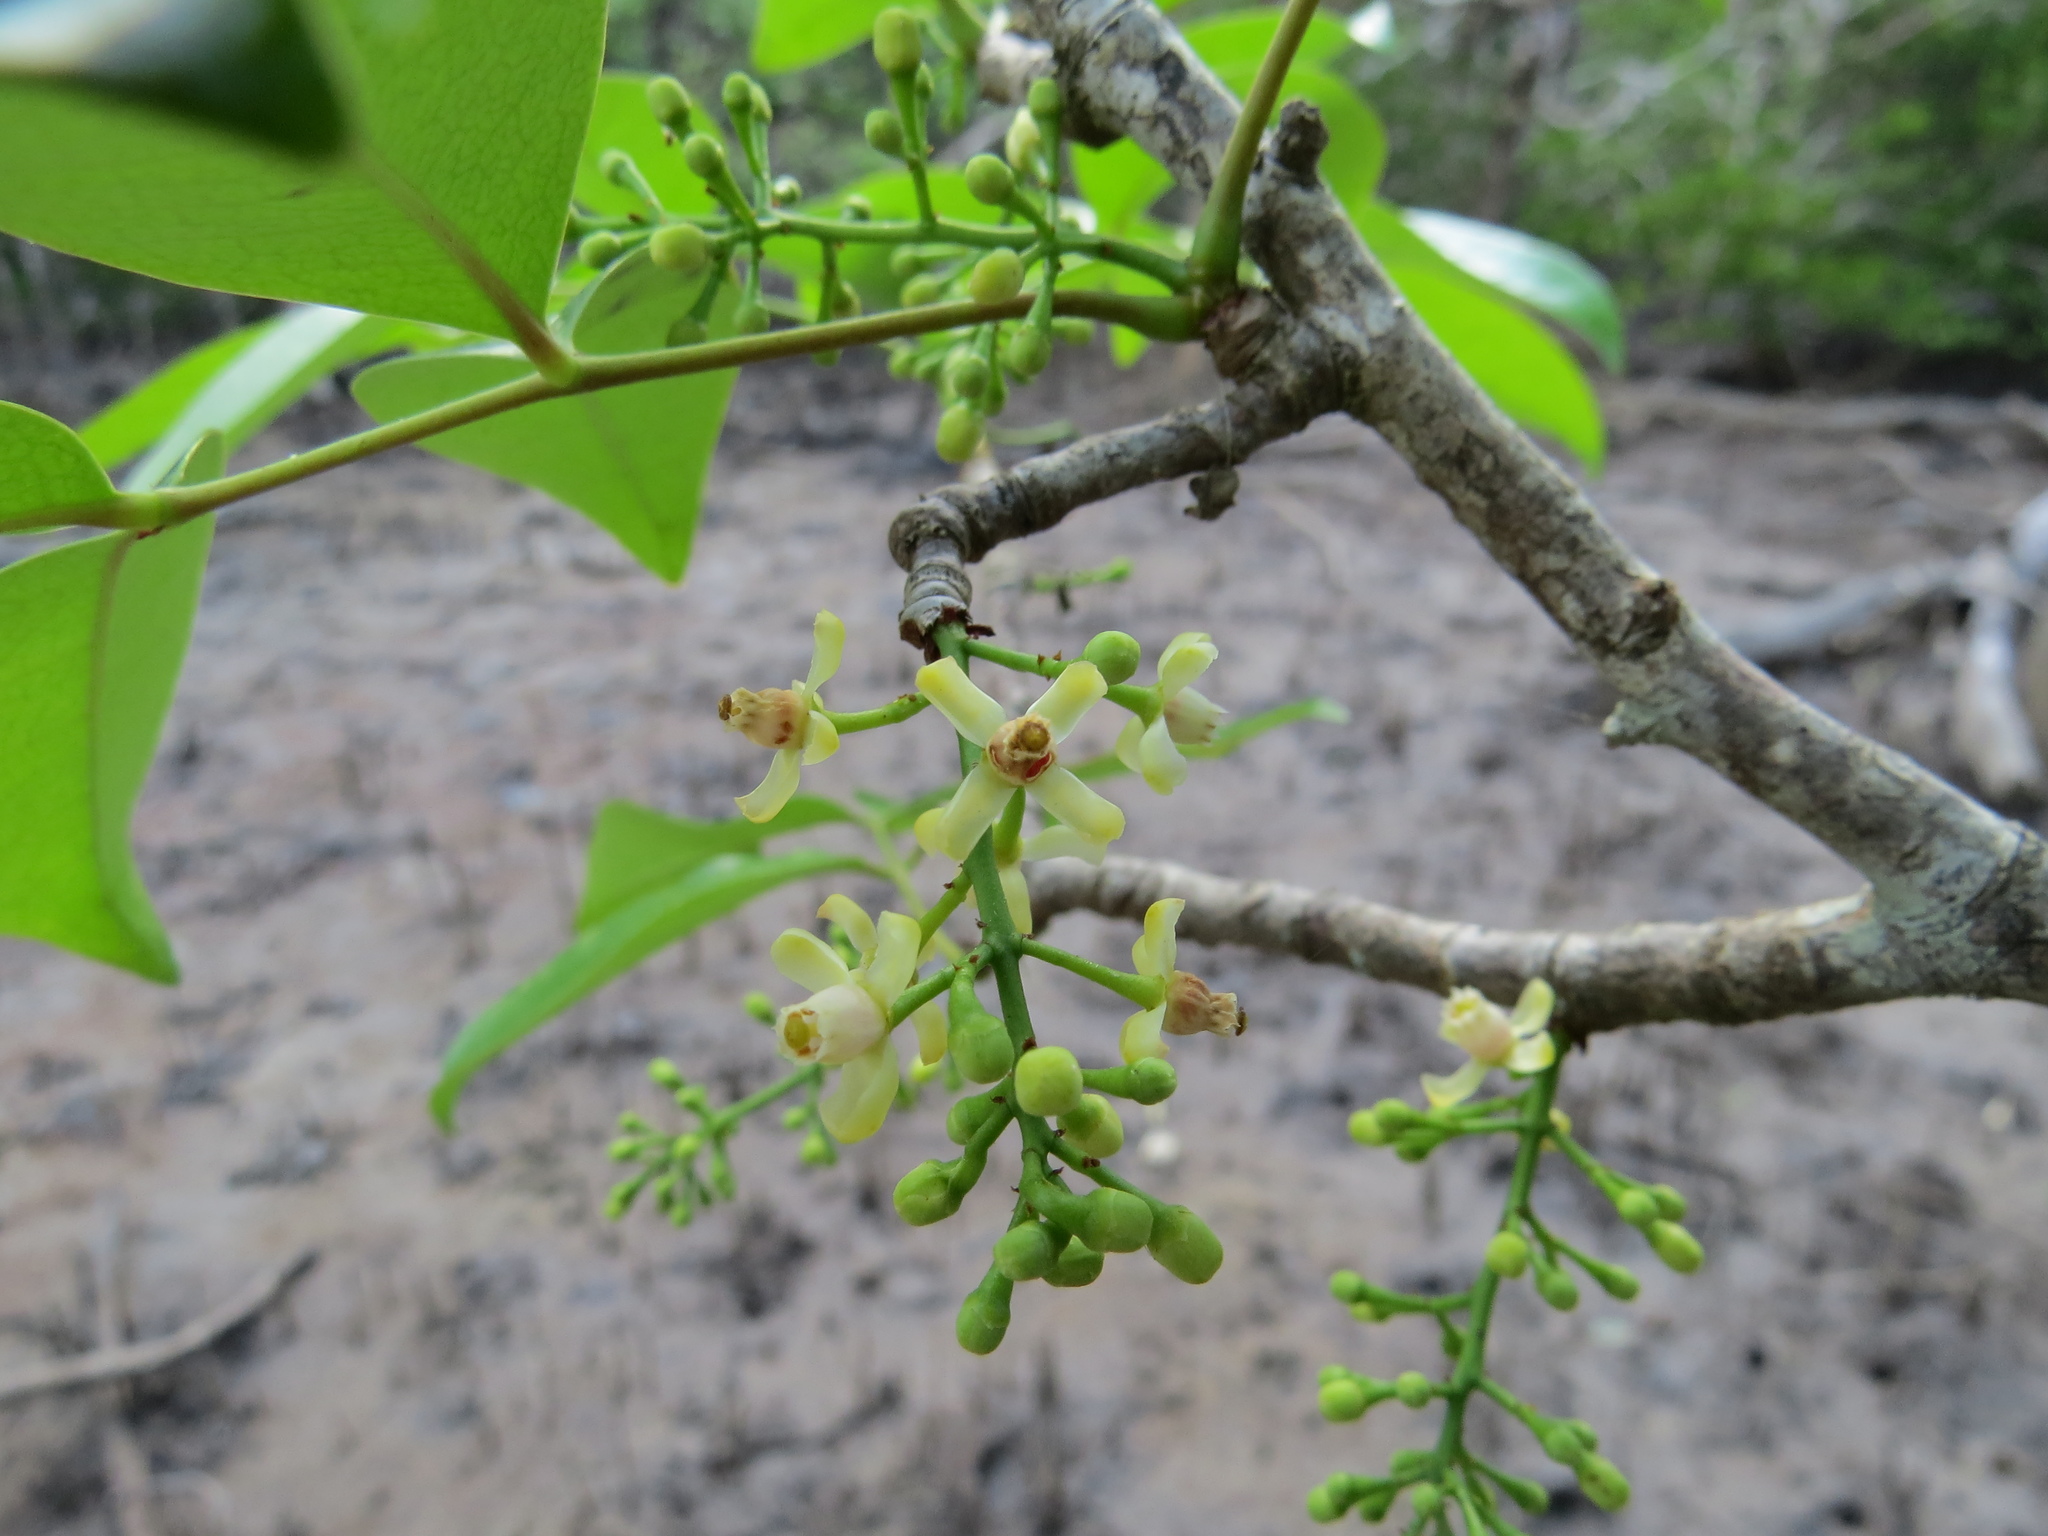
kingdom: Plantae
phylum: Tracheophyta
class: Magnoliopsida
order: Sapindales
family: Meliaceae
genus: Xylocarpus
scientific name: Xylocarpus moluccensis
